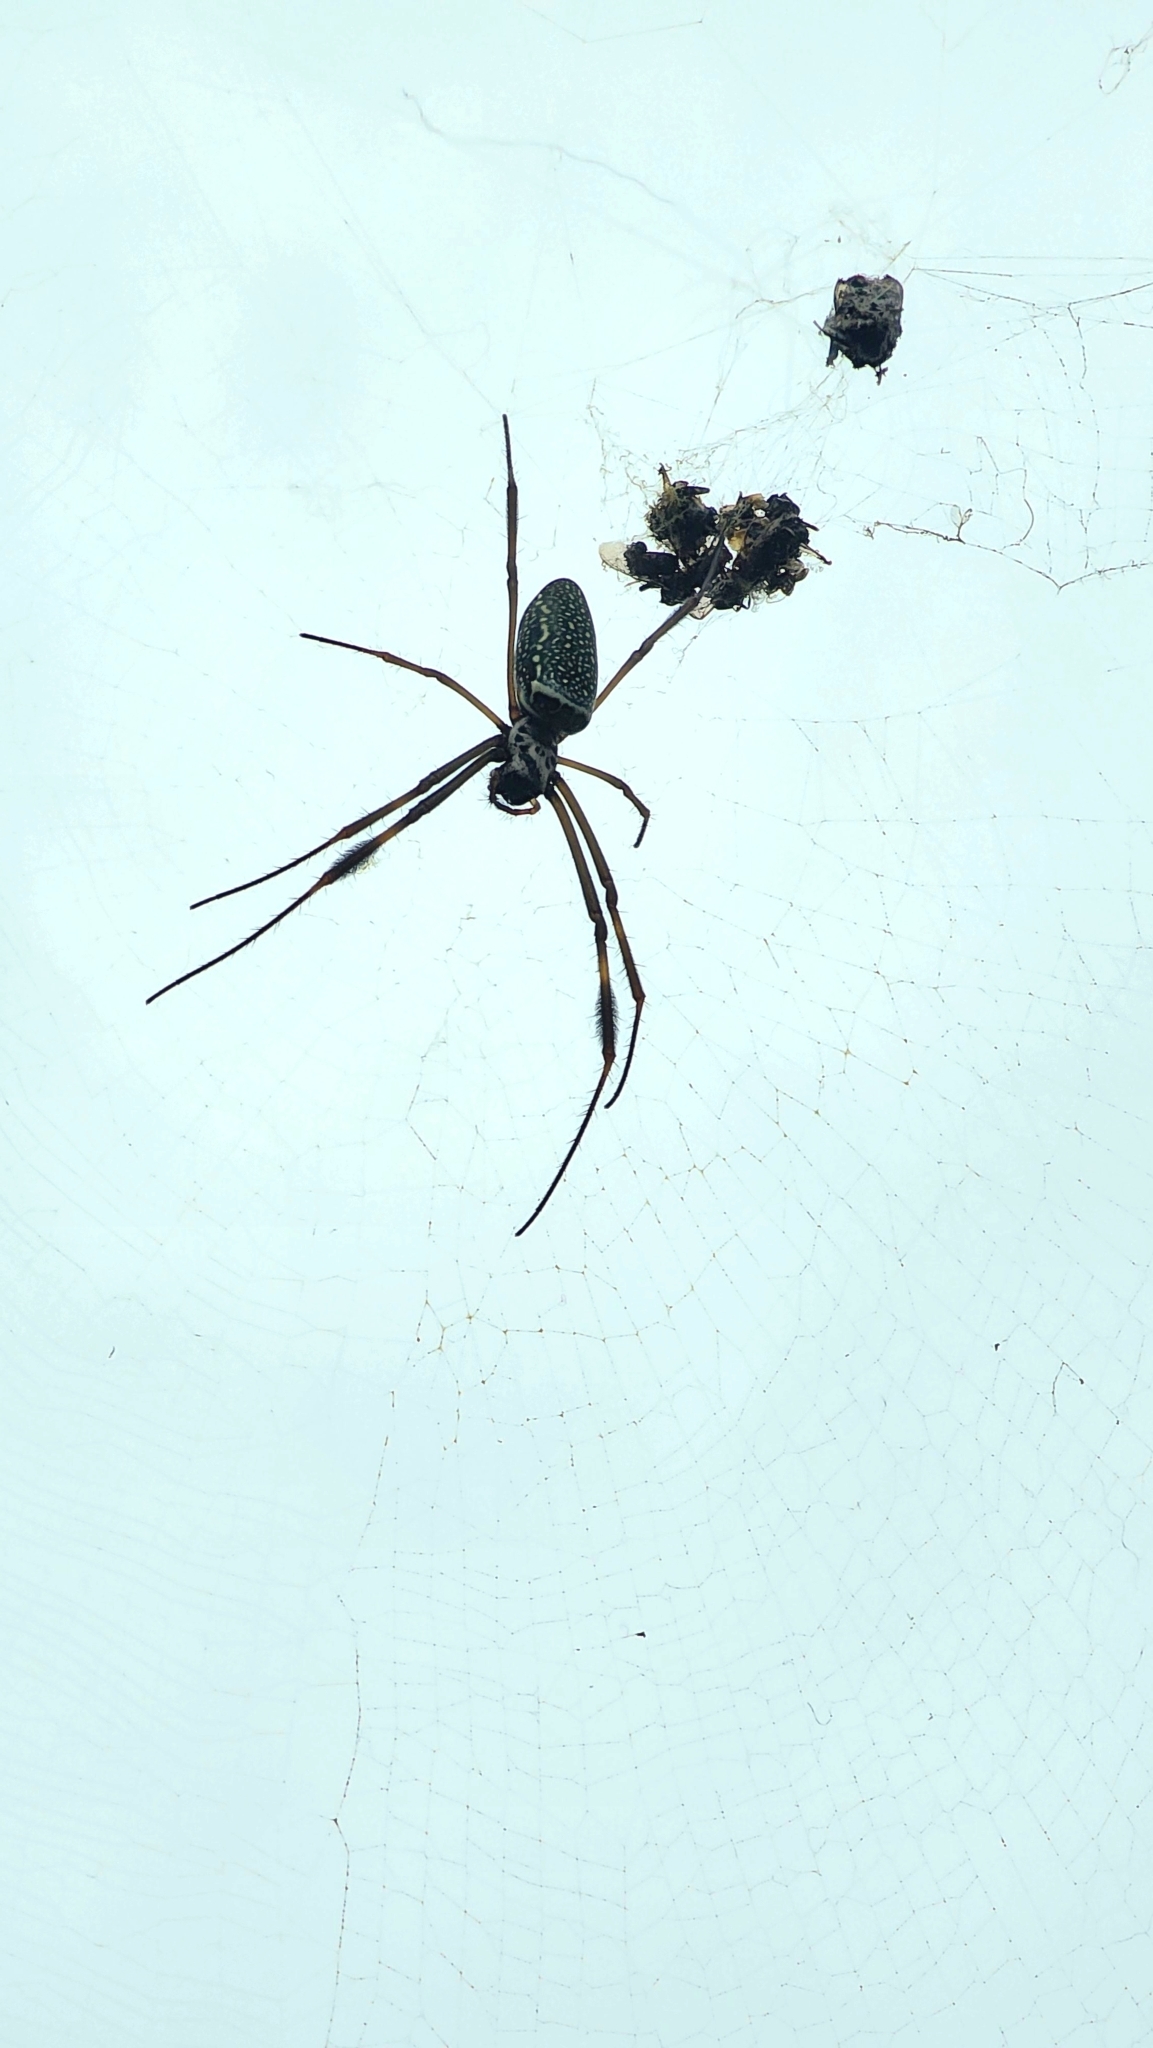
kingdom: Animalia
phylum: Arthropoda
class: Arachnida
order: Araneae
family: Araneidae
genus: Trichonephila
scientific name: Trichonephila clavipes
